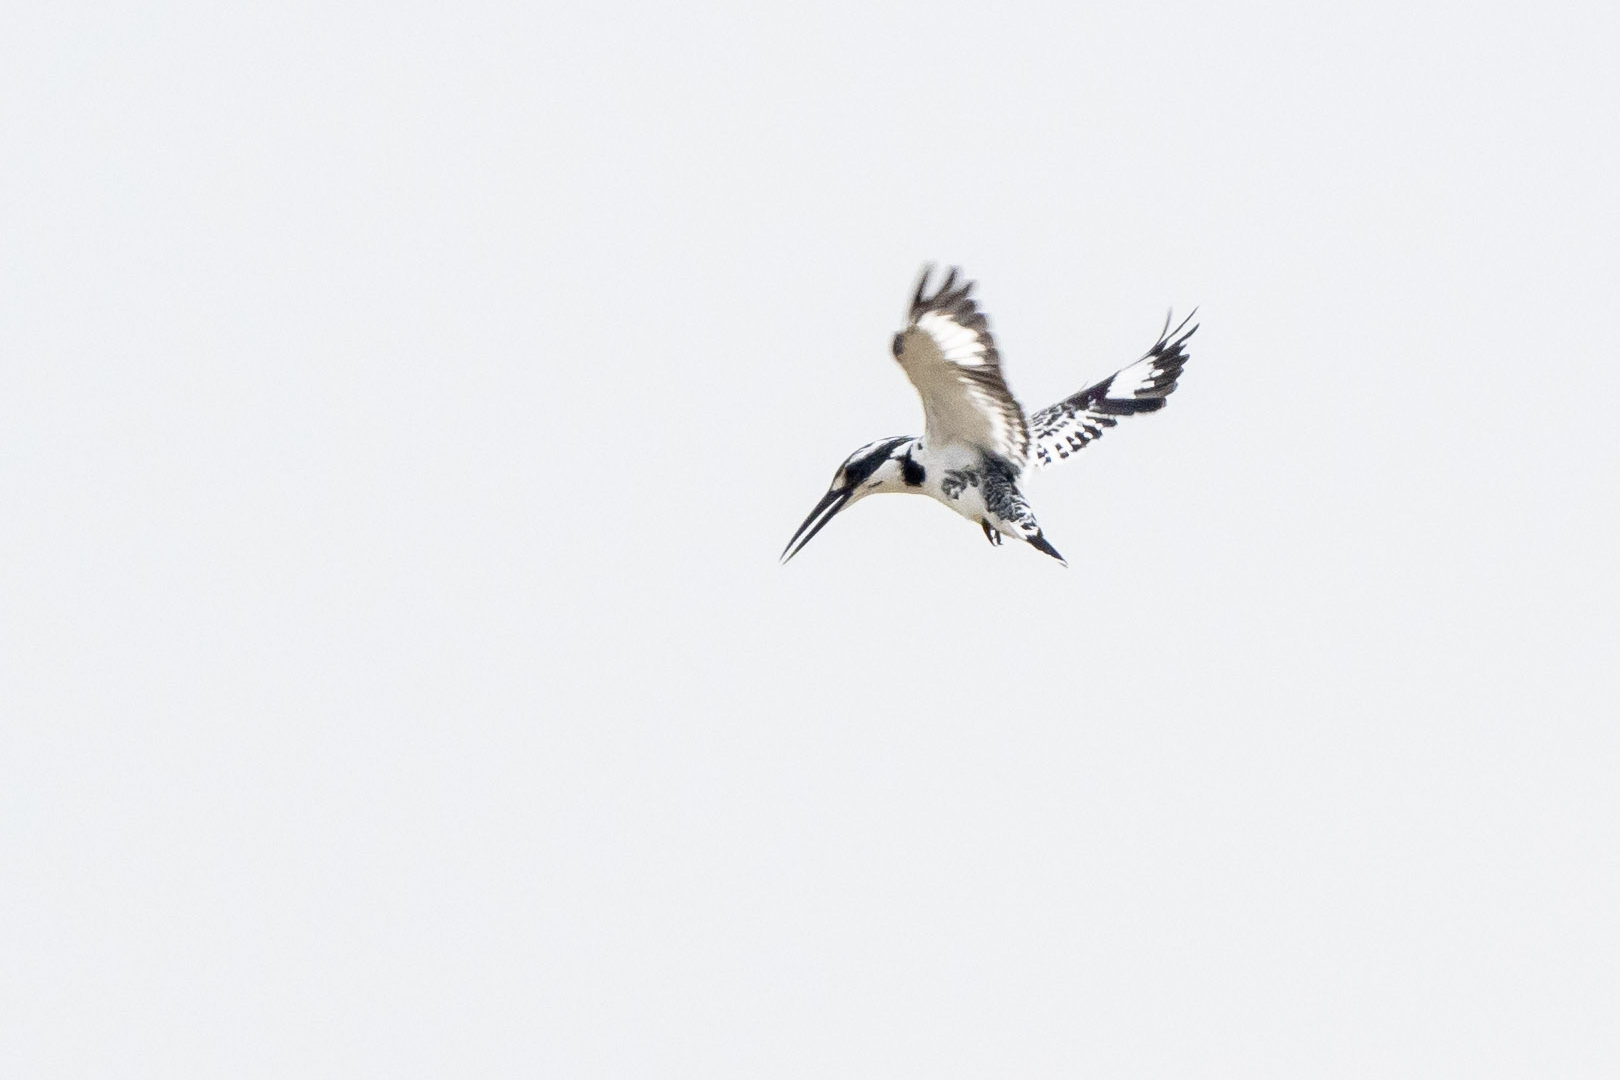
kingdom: Animalia
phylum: Chordata
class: Aves
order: Coraciiformes
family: Alcedinidae
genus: Ceryle
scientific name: Ceryle rudis
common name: Pied kingfisher
